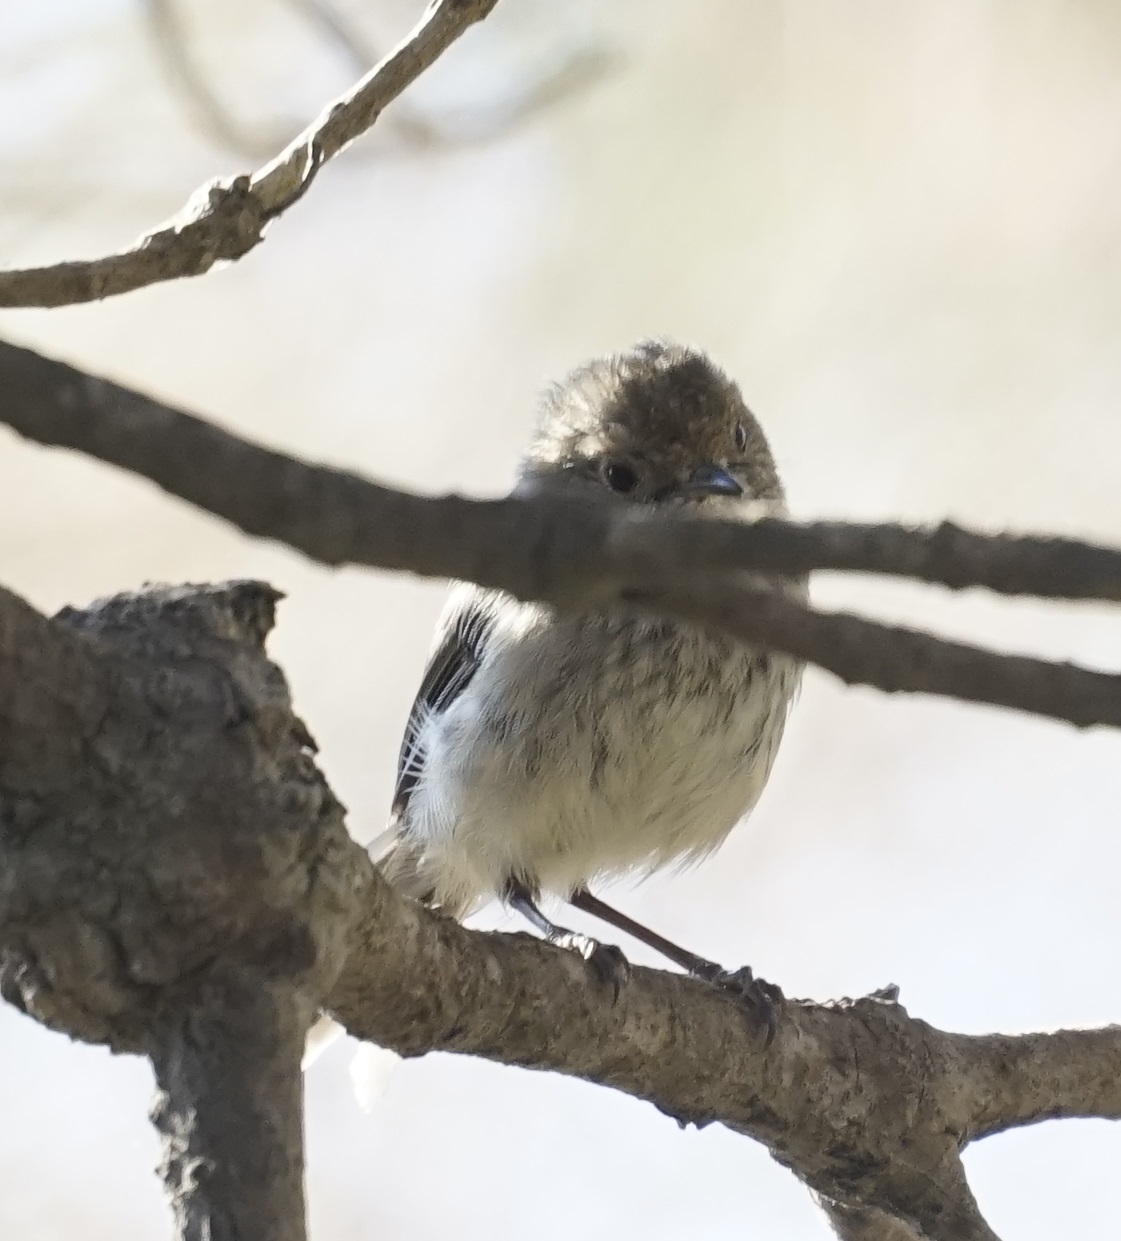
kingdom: Animalia
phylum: Chordata
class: Aves
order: Passeriformes
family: Acanthizidae
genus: Acanthiza
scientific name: Acanthiza pusilla
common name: Brown thornbill
